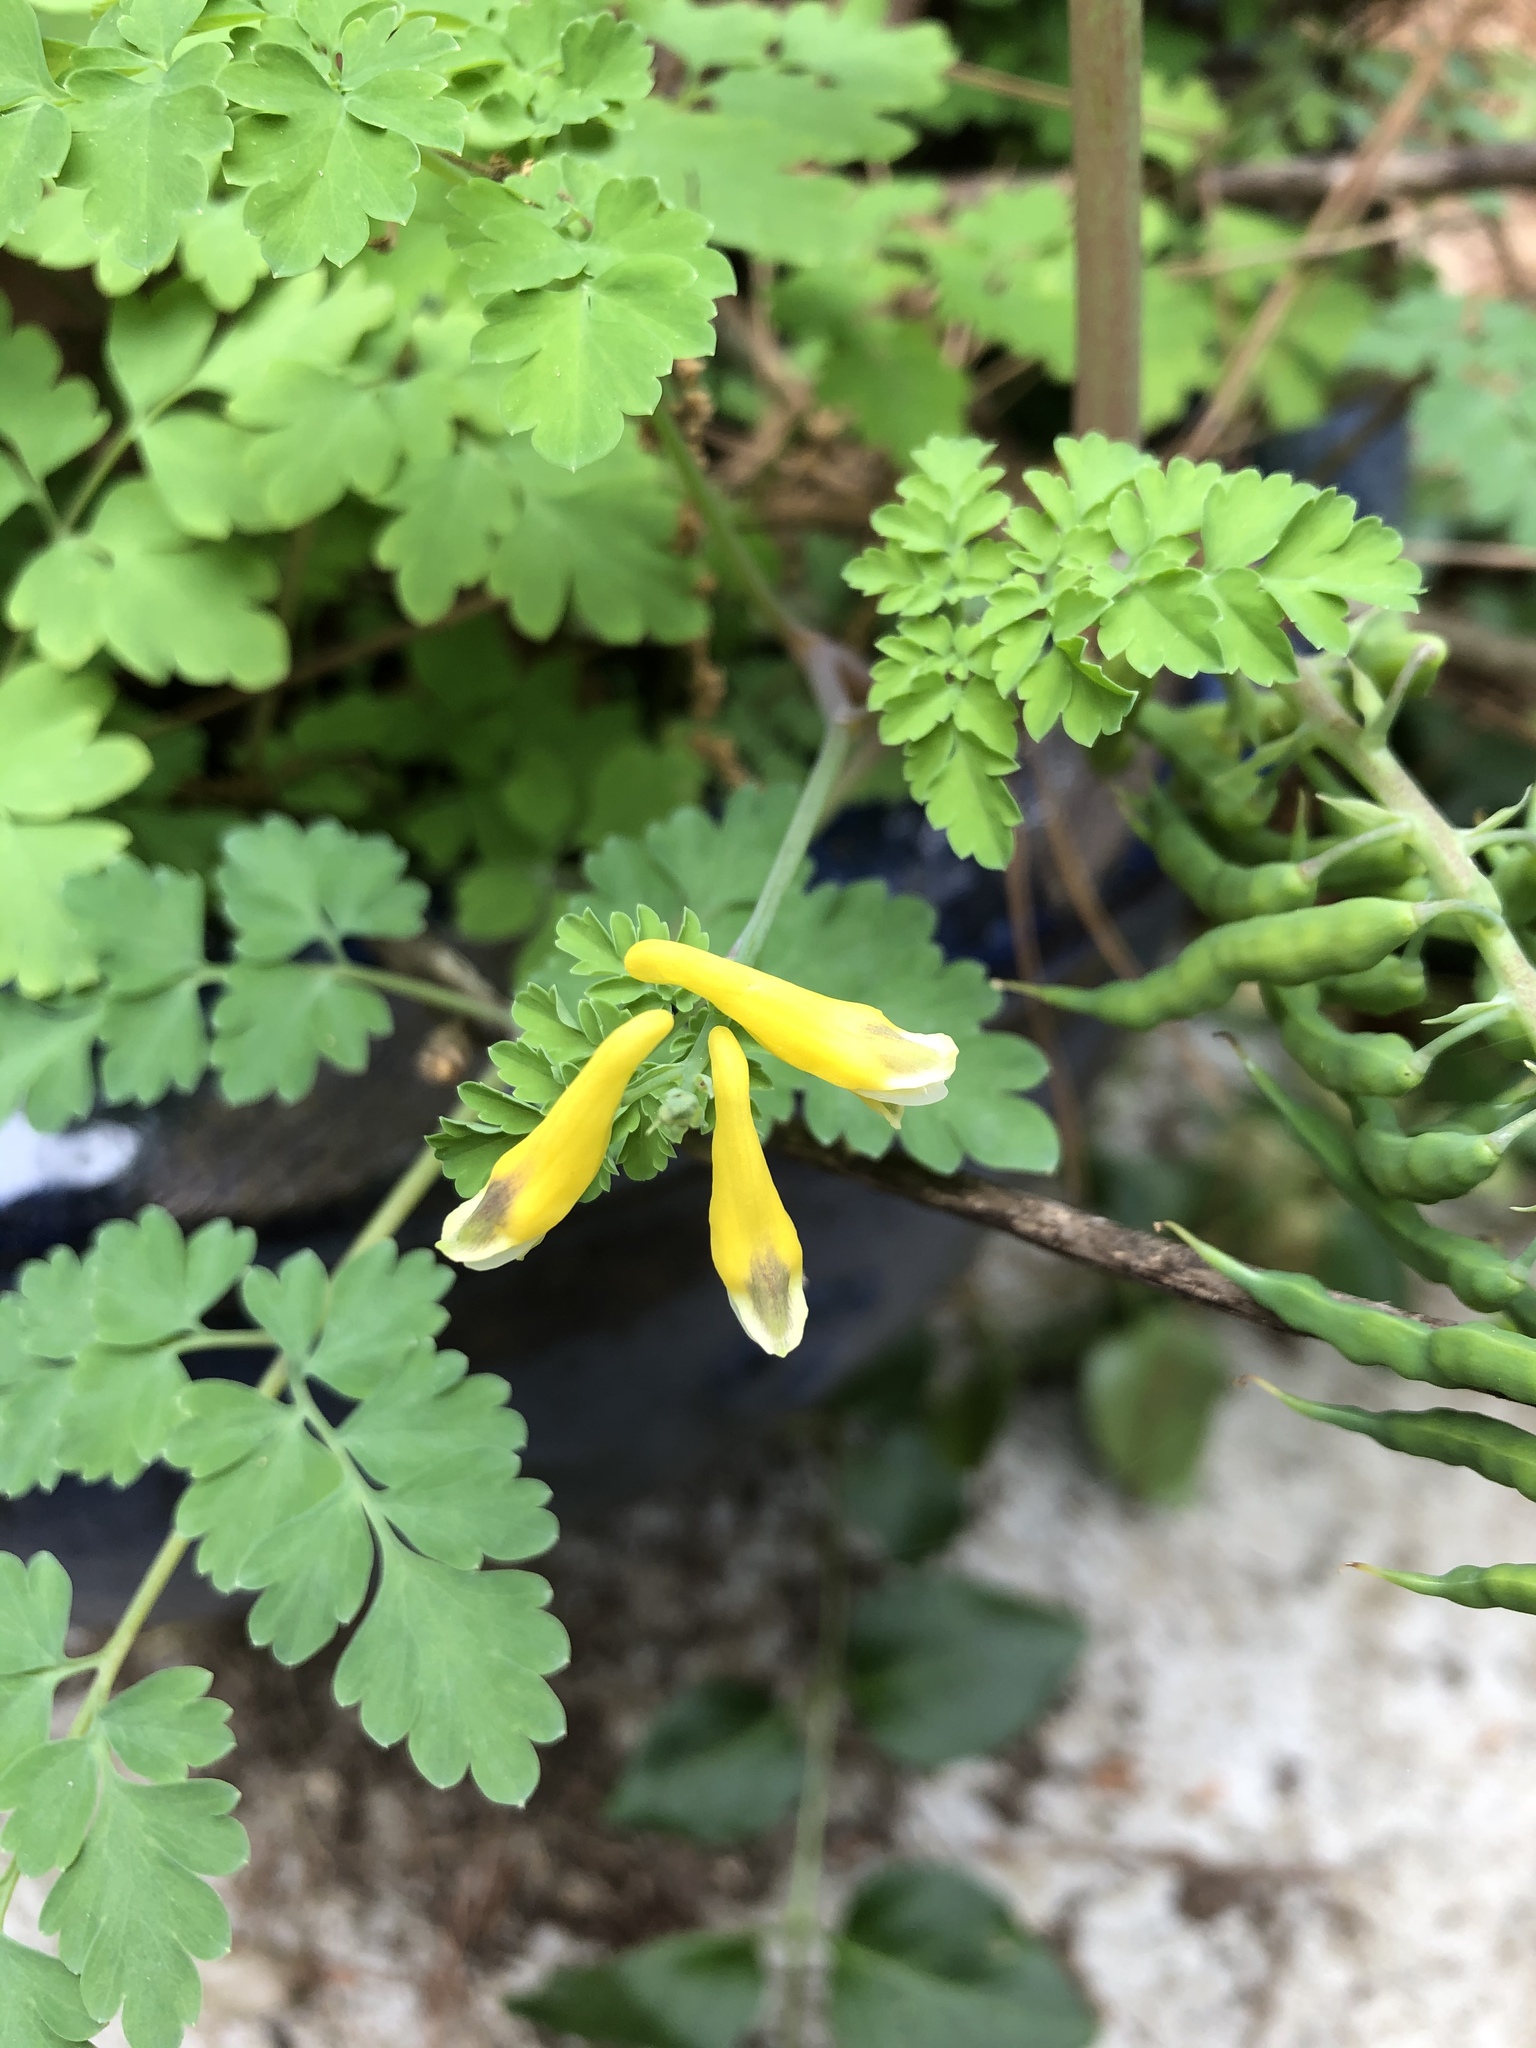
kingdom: Plantae
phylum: Tracheophyta
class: Magnoliopsida
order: Ranunculales
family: Papaveraceae
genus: Corydalis
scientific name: Corydalis heterocarpa
